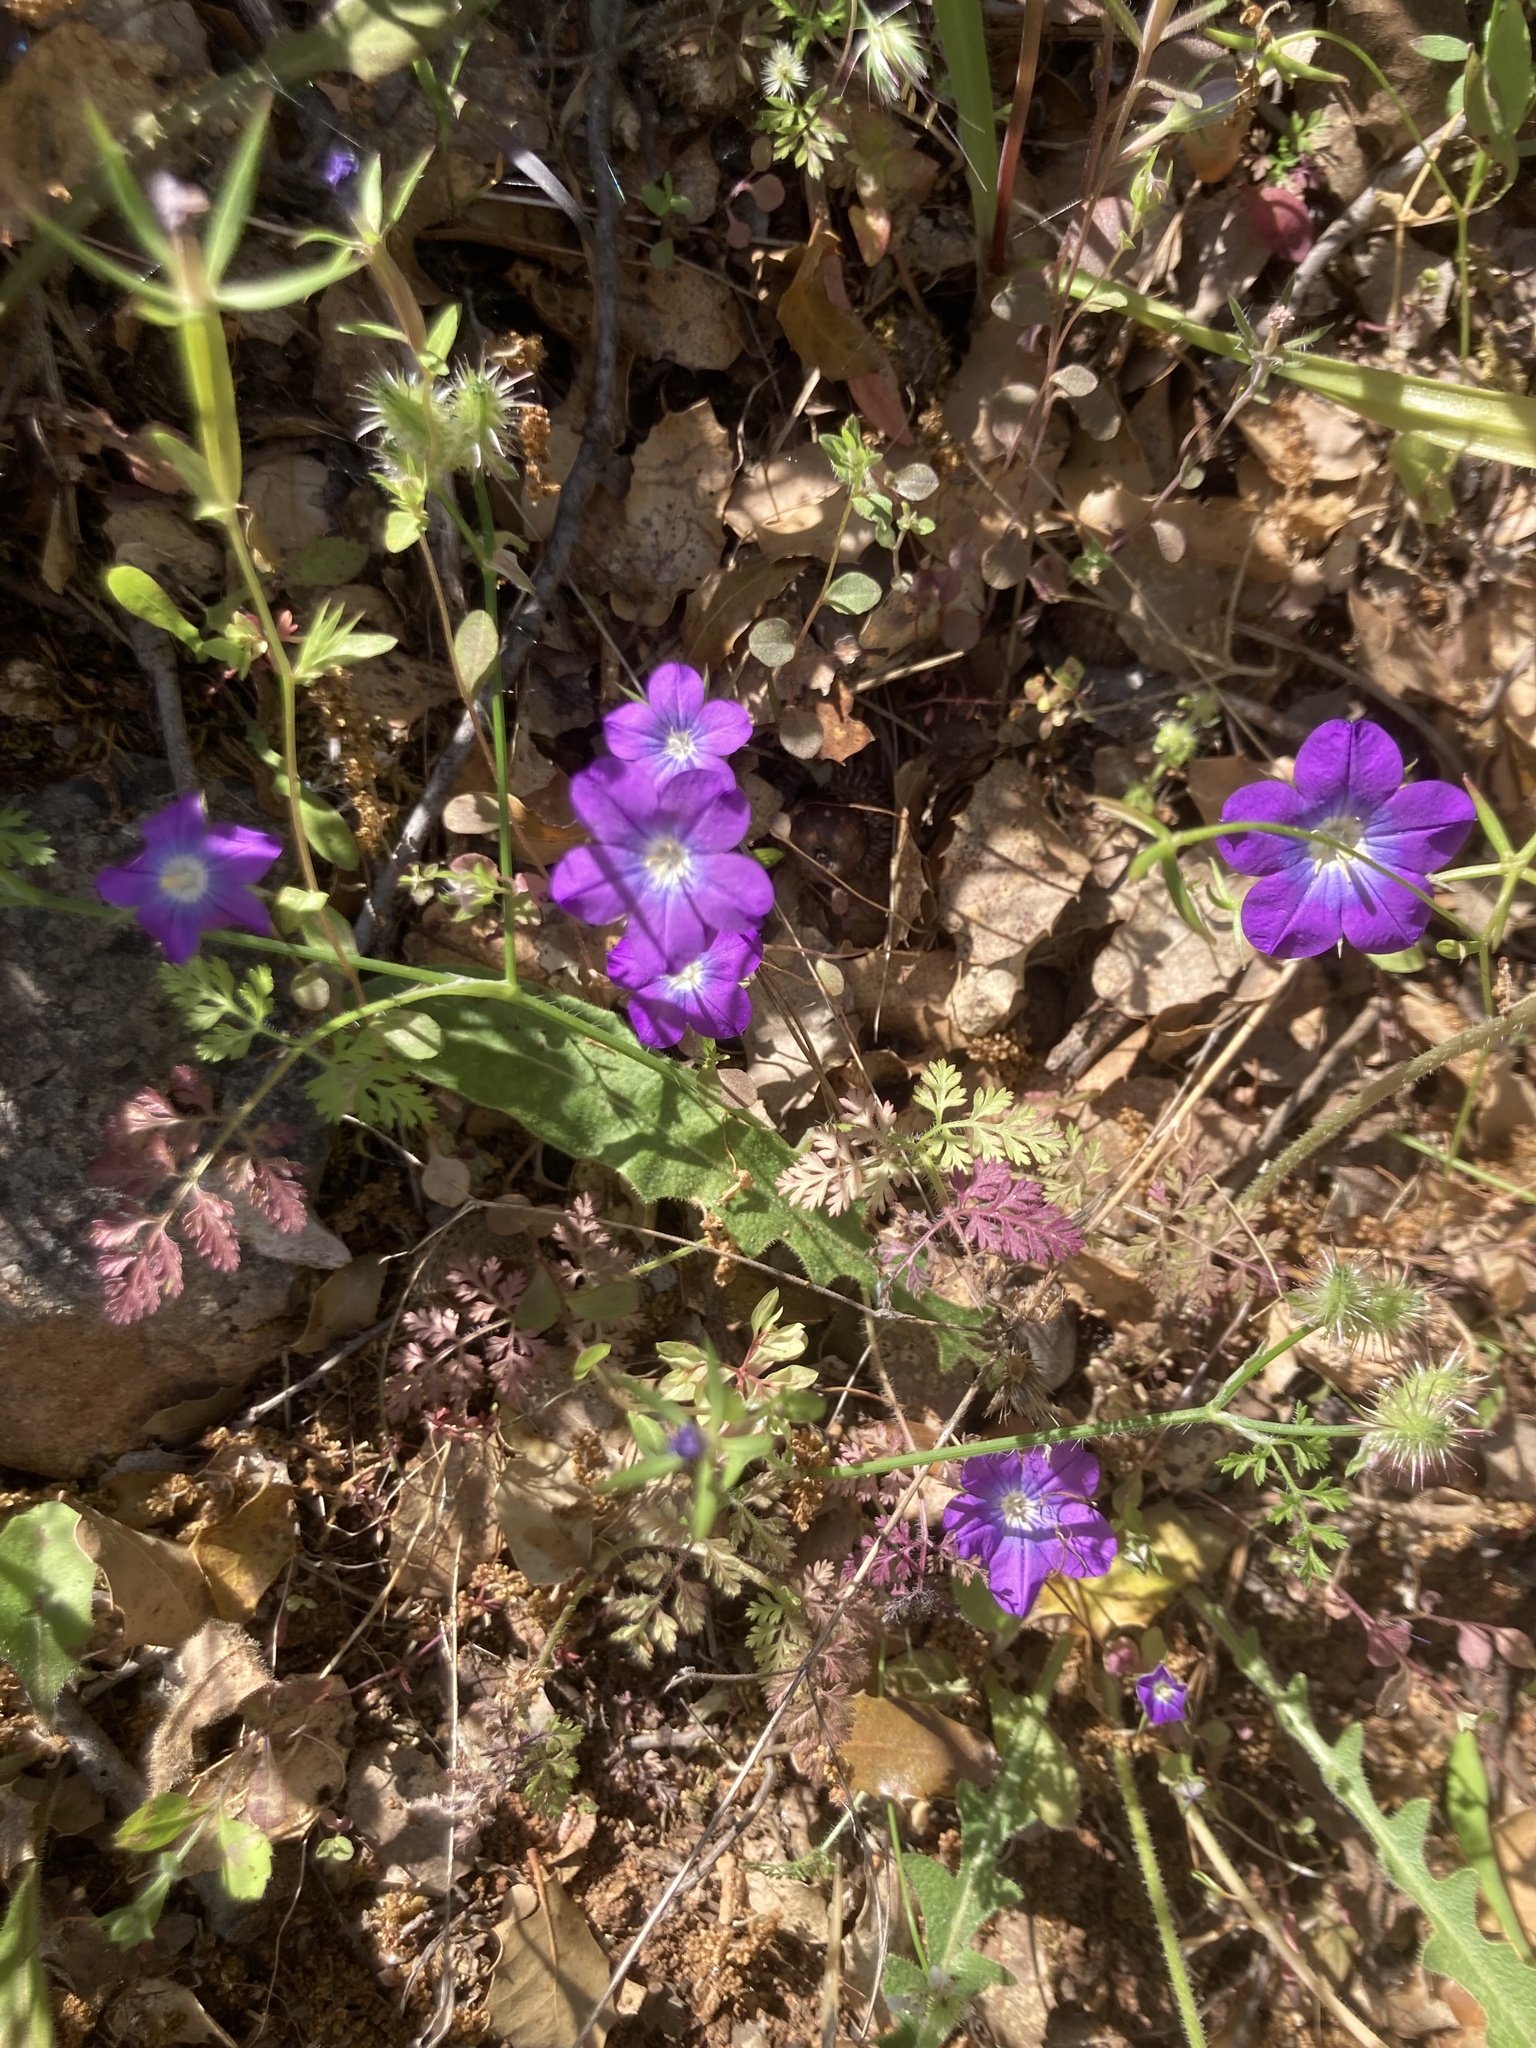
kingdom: Plantae
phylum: Tracheophyta
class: Magnoliopsida
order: Asterales
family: Campanulaceae
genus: Legousia
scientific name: Legousia pentagonia
